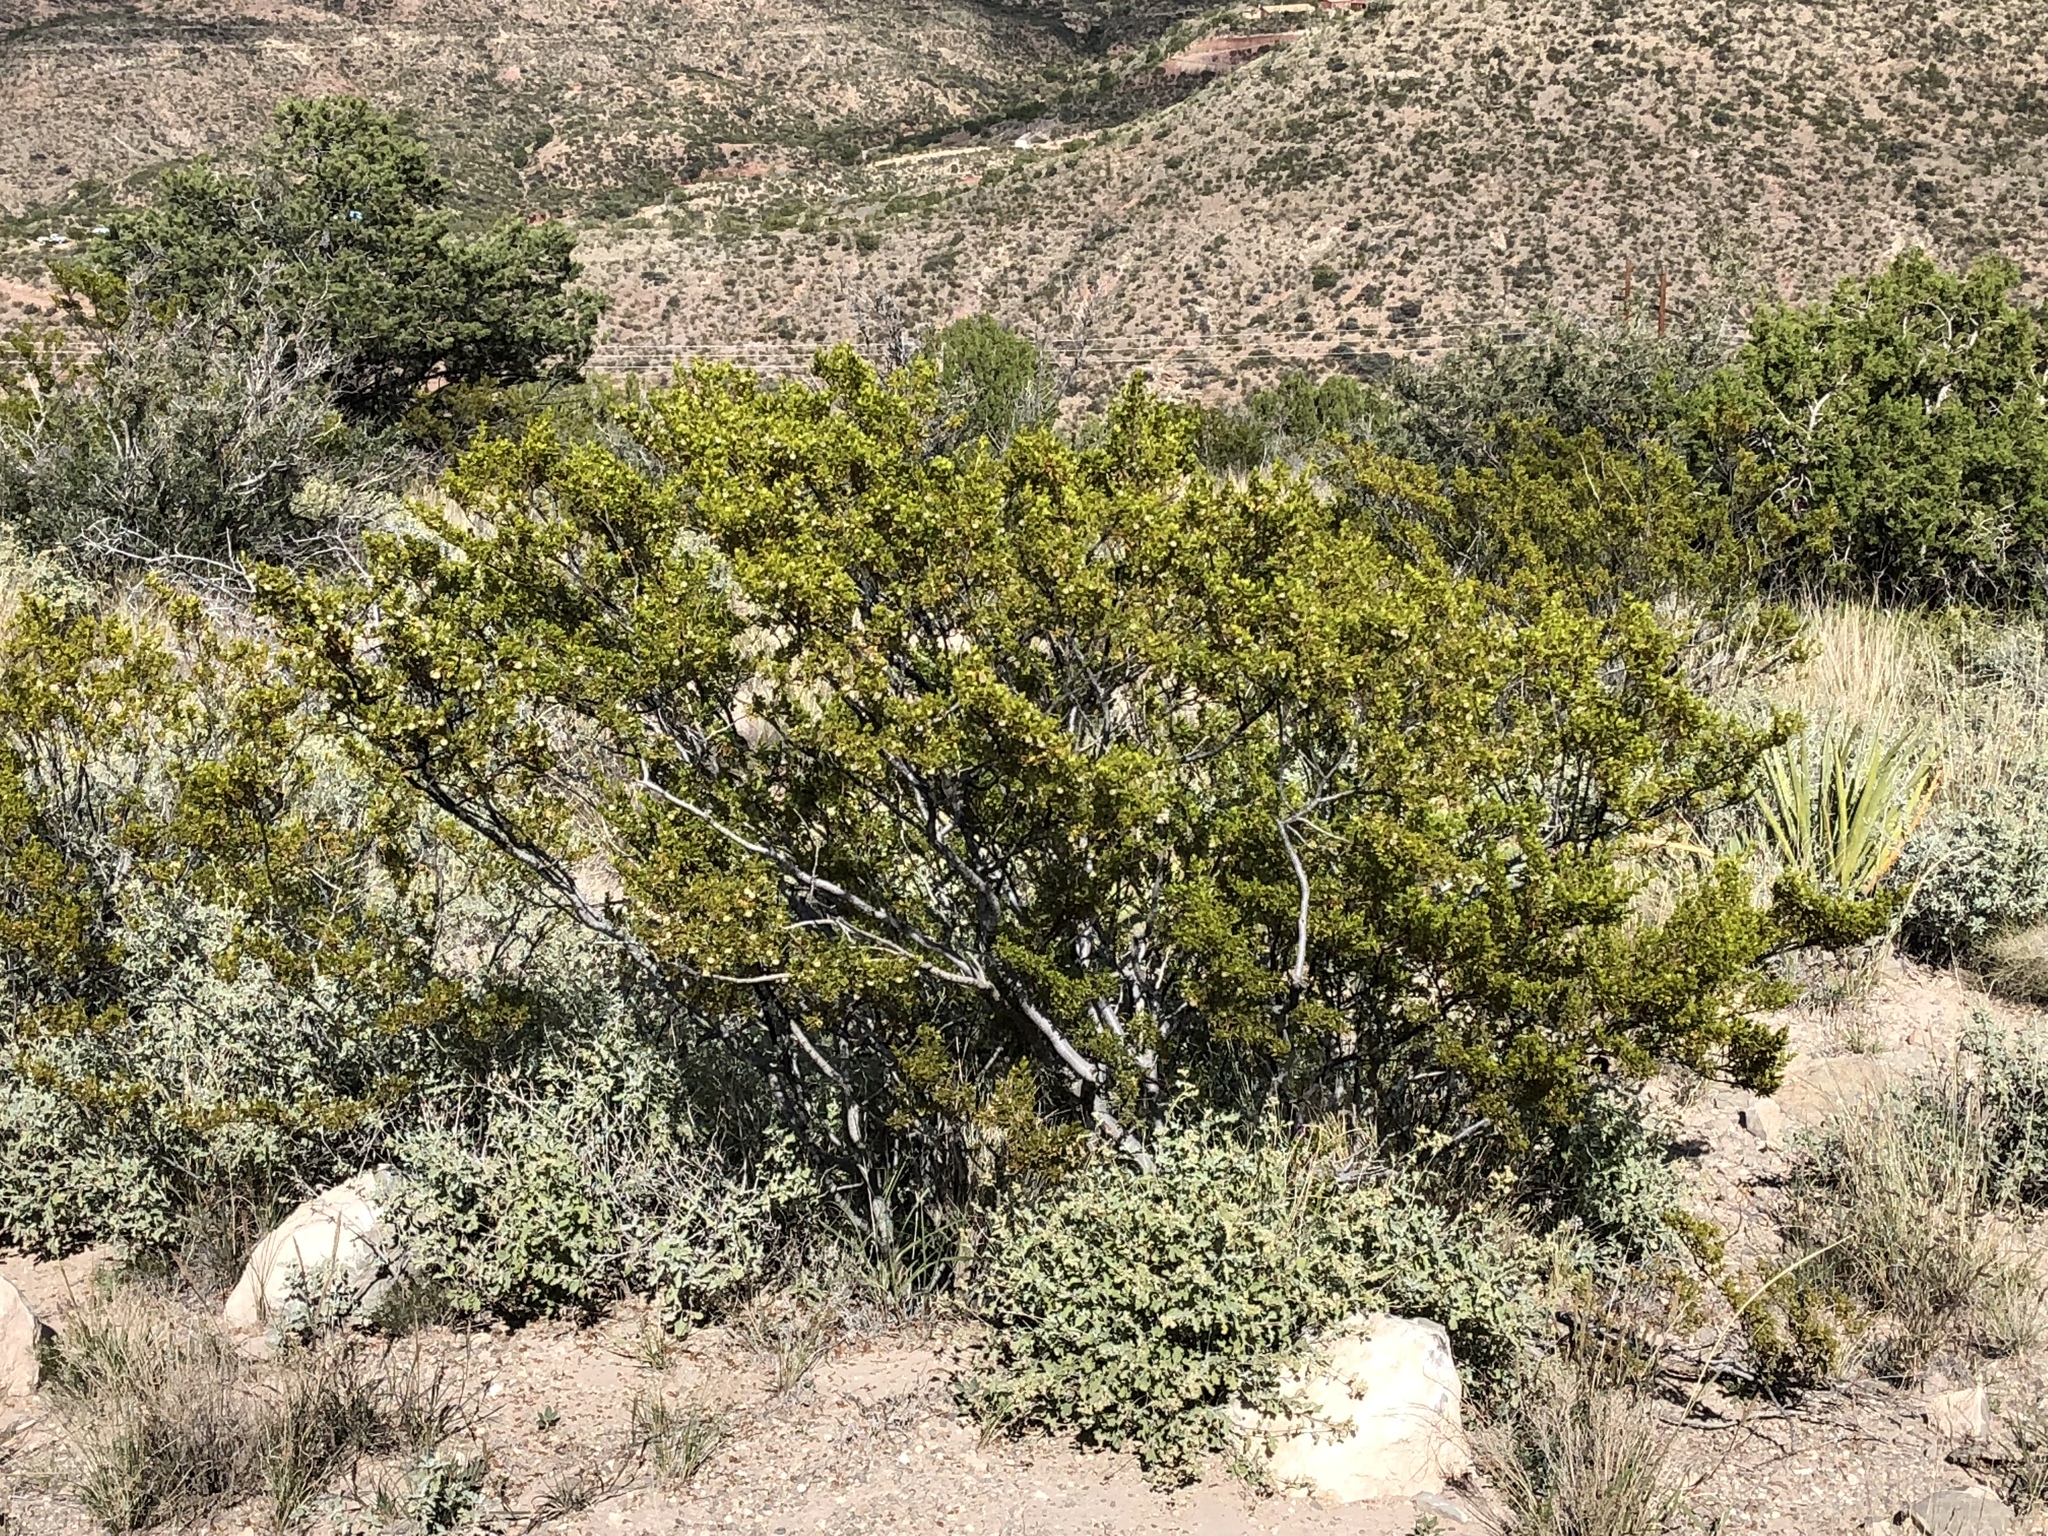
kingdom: Plantae
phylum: Tracheophyta
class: Magnoliopsida
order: Zygophyllales
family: Zygophyllaceae
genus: Larrea
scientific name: Larrea tridentata
